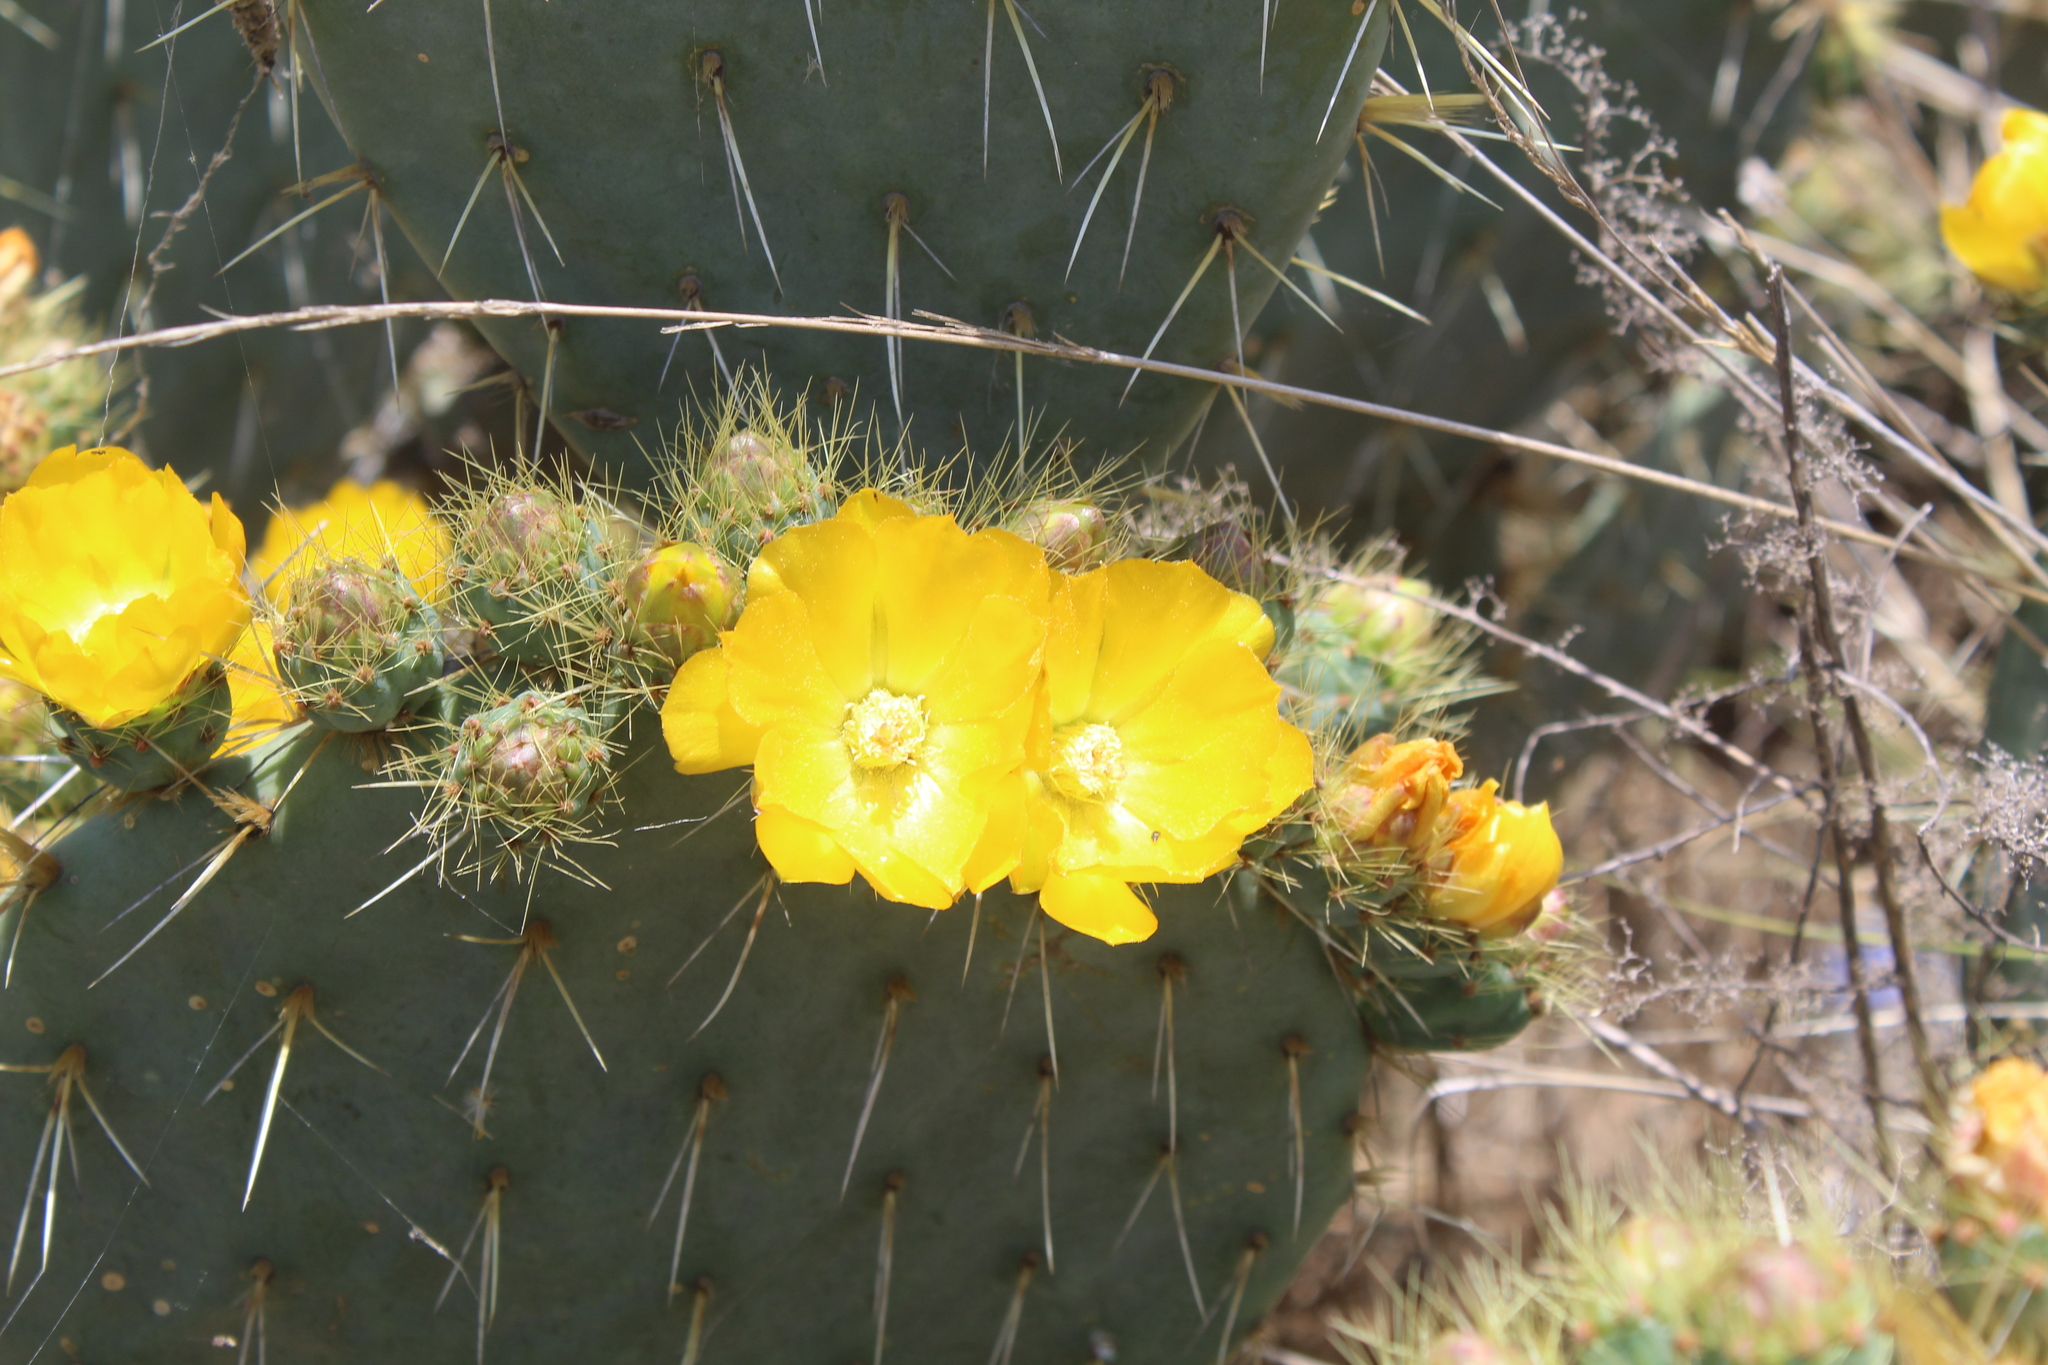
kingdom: Plantae
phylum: Tracheophyta
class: Magnoliopsida
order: Caryophyllales
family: Cactaceae
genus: Opuntia
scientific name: Opuntia perotensis
